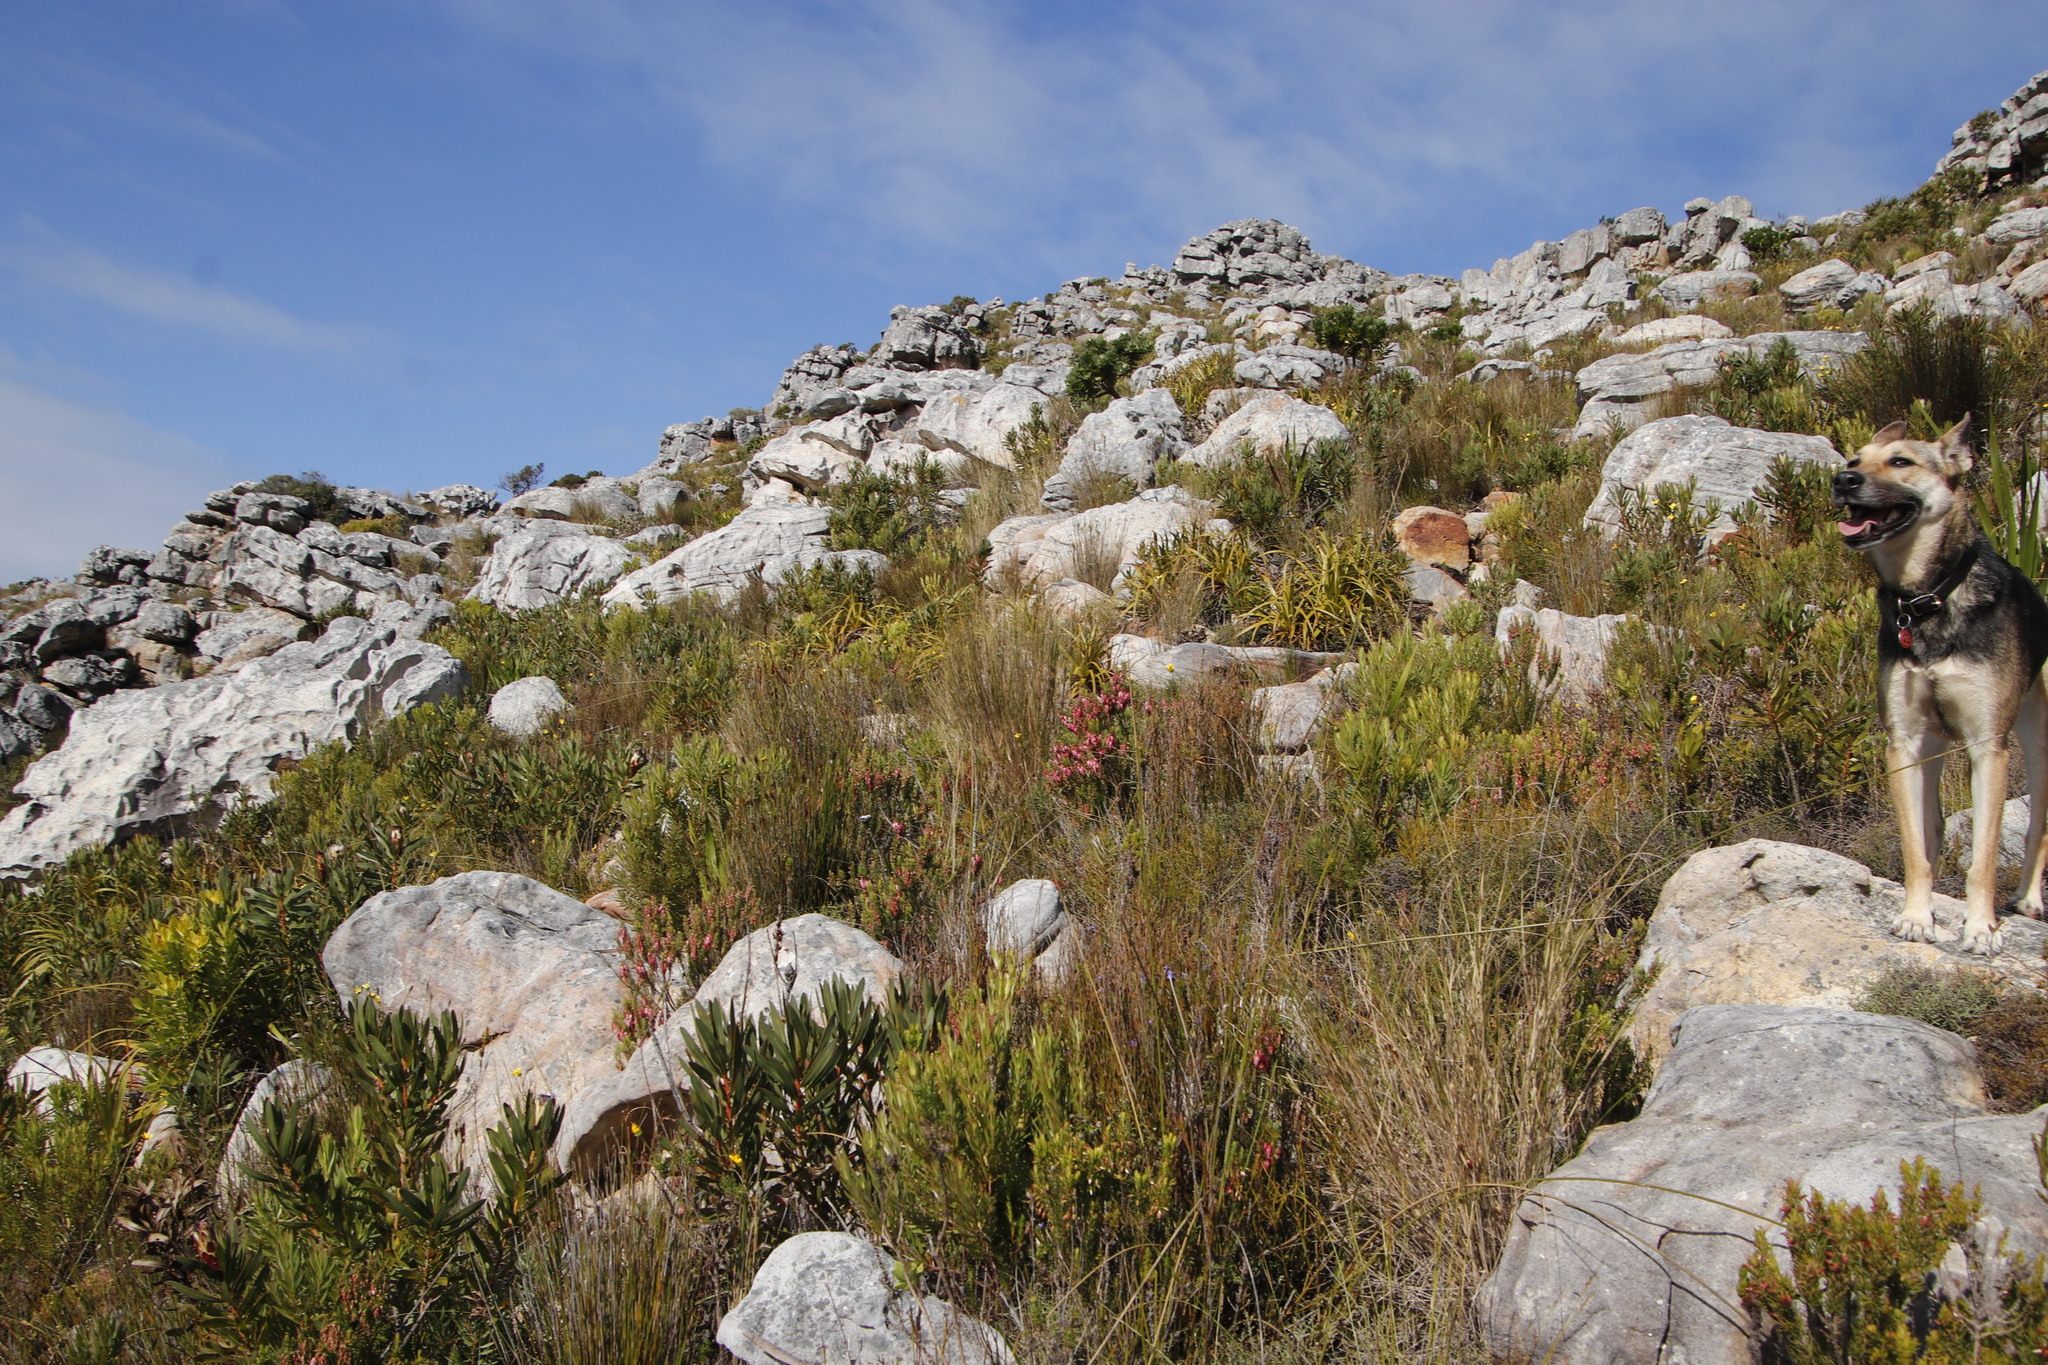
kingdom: Plantae
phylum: Tracheophyta
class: Magnoliopsida
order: Ericales
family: Ericaceae
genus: Erica
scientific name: Erica plukenetii
